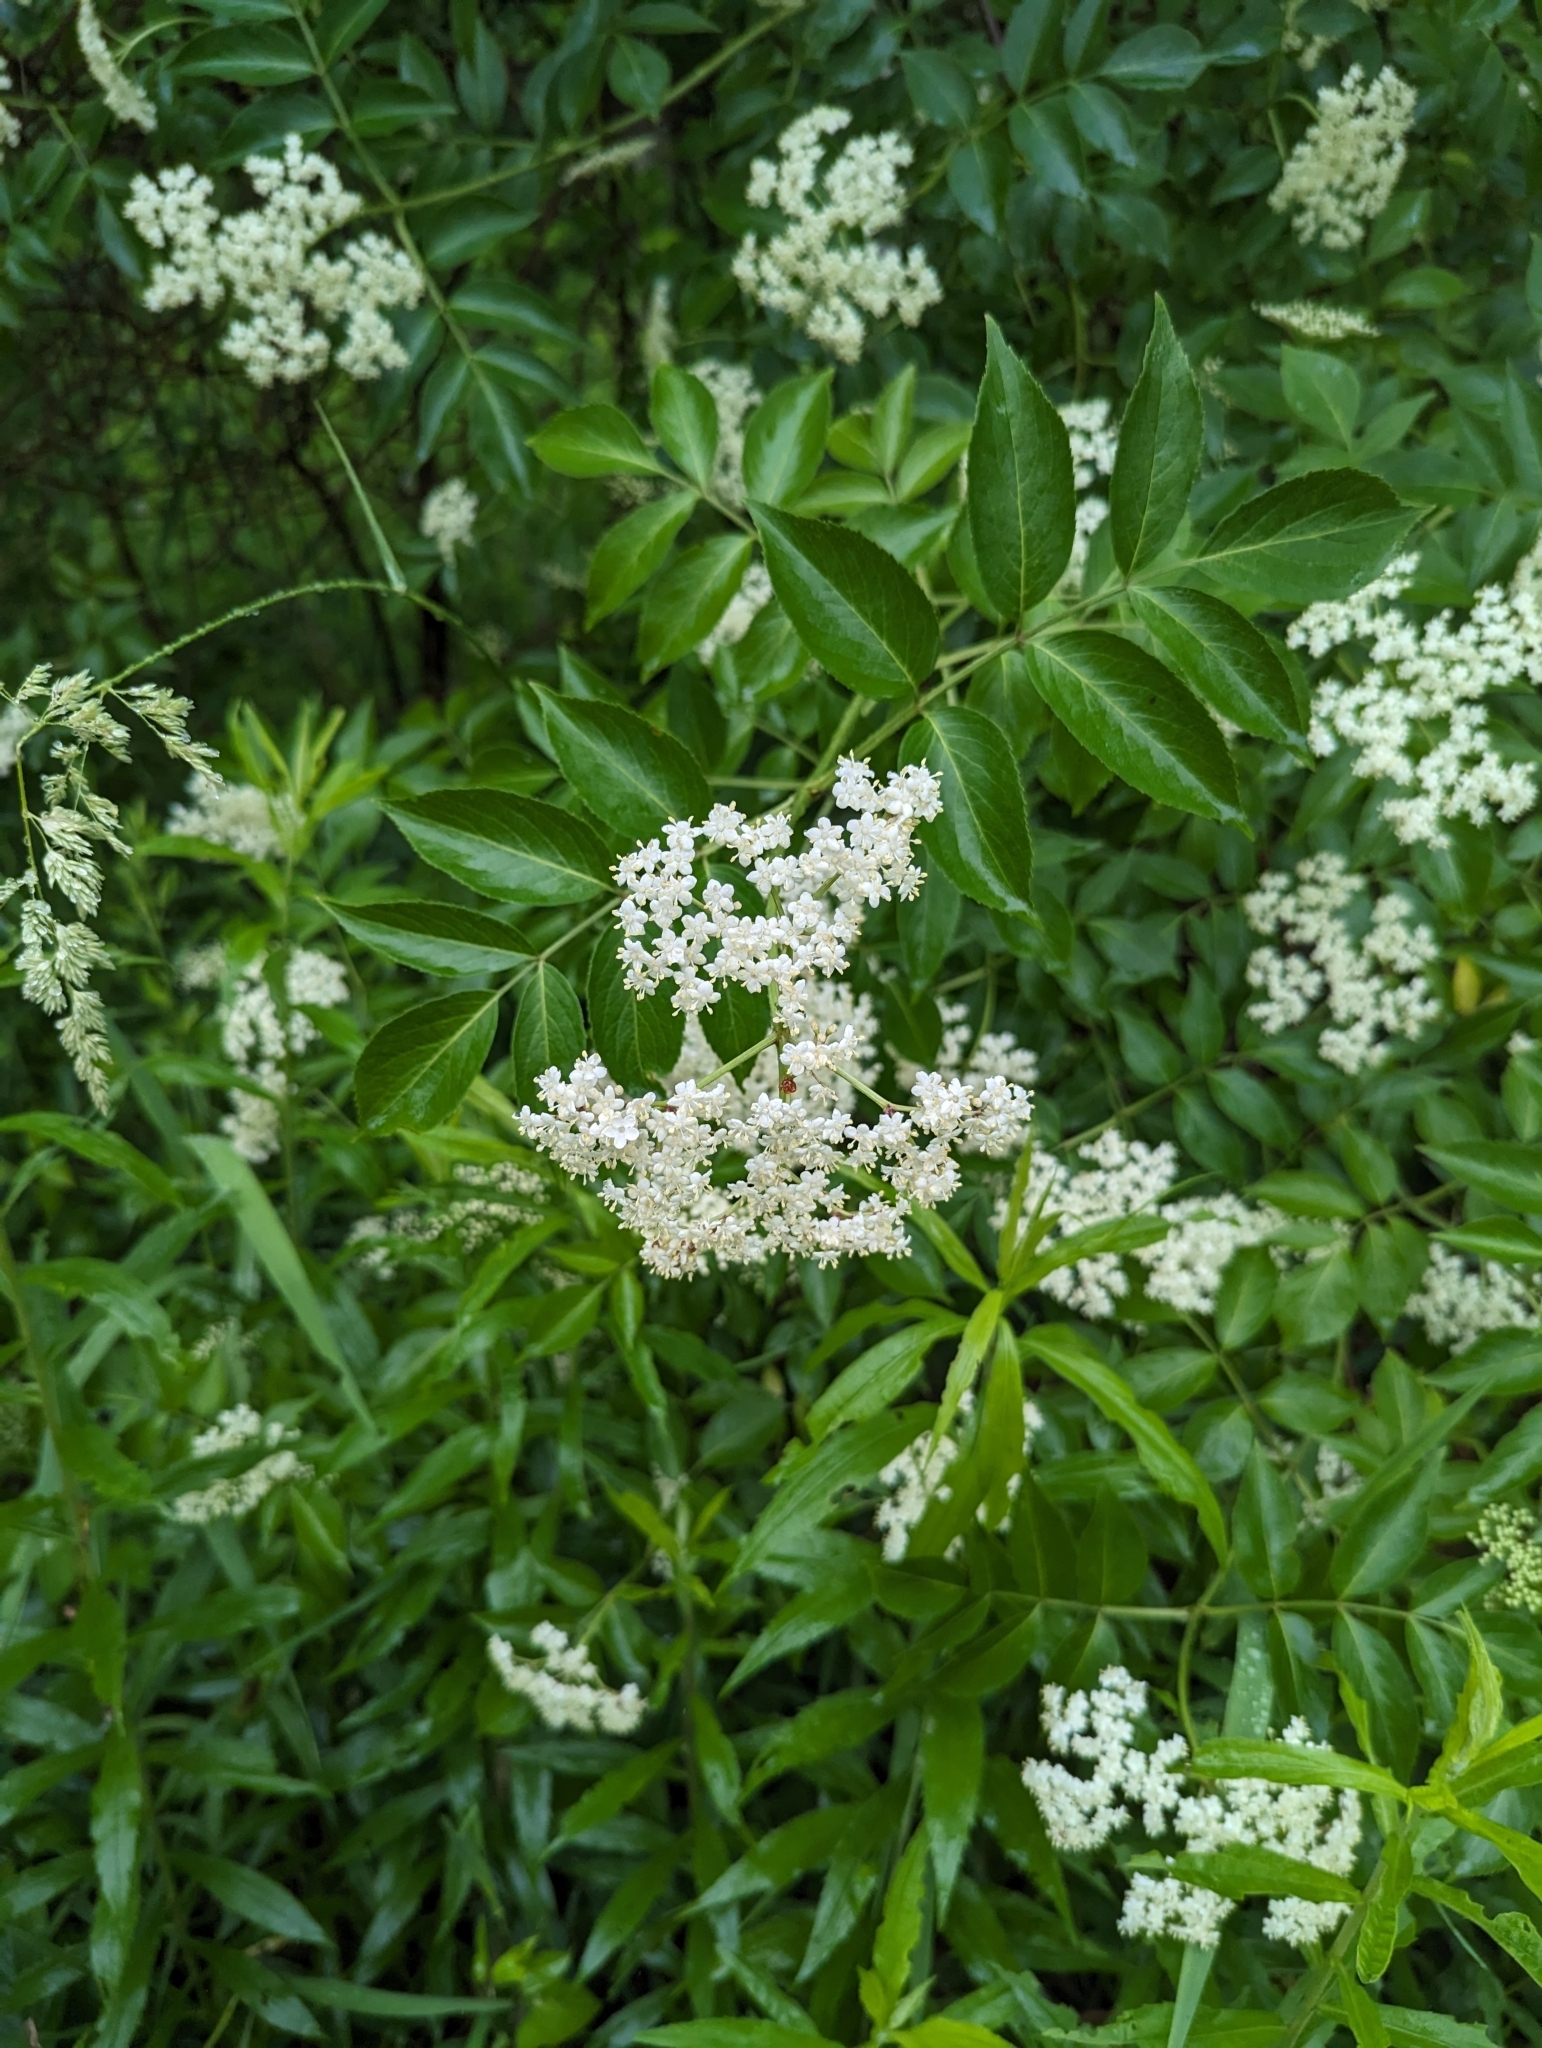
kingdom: Plantae
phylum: Tracheophyta
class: Magnoliopsida
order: Dipsacales
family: Viburnaceae
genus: Sambucus
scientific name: Sambucus canadensis
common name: American elder
